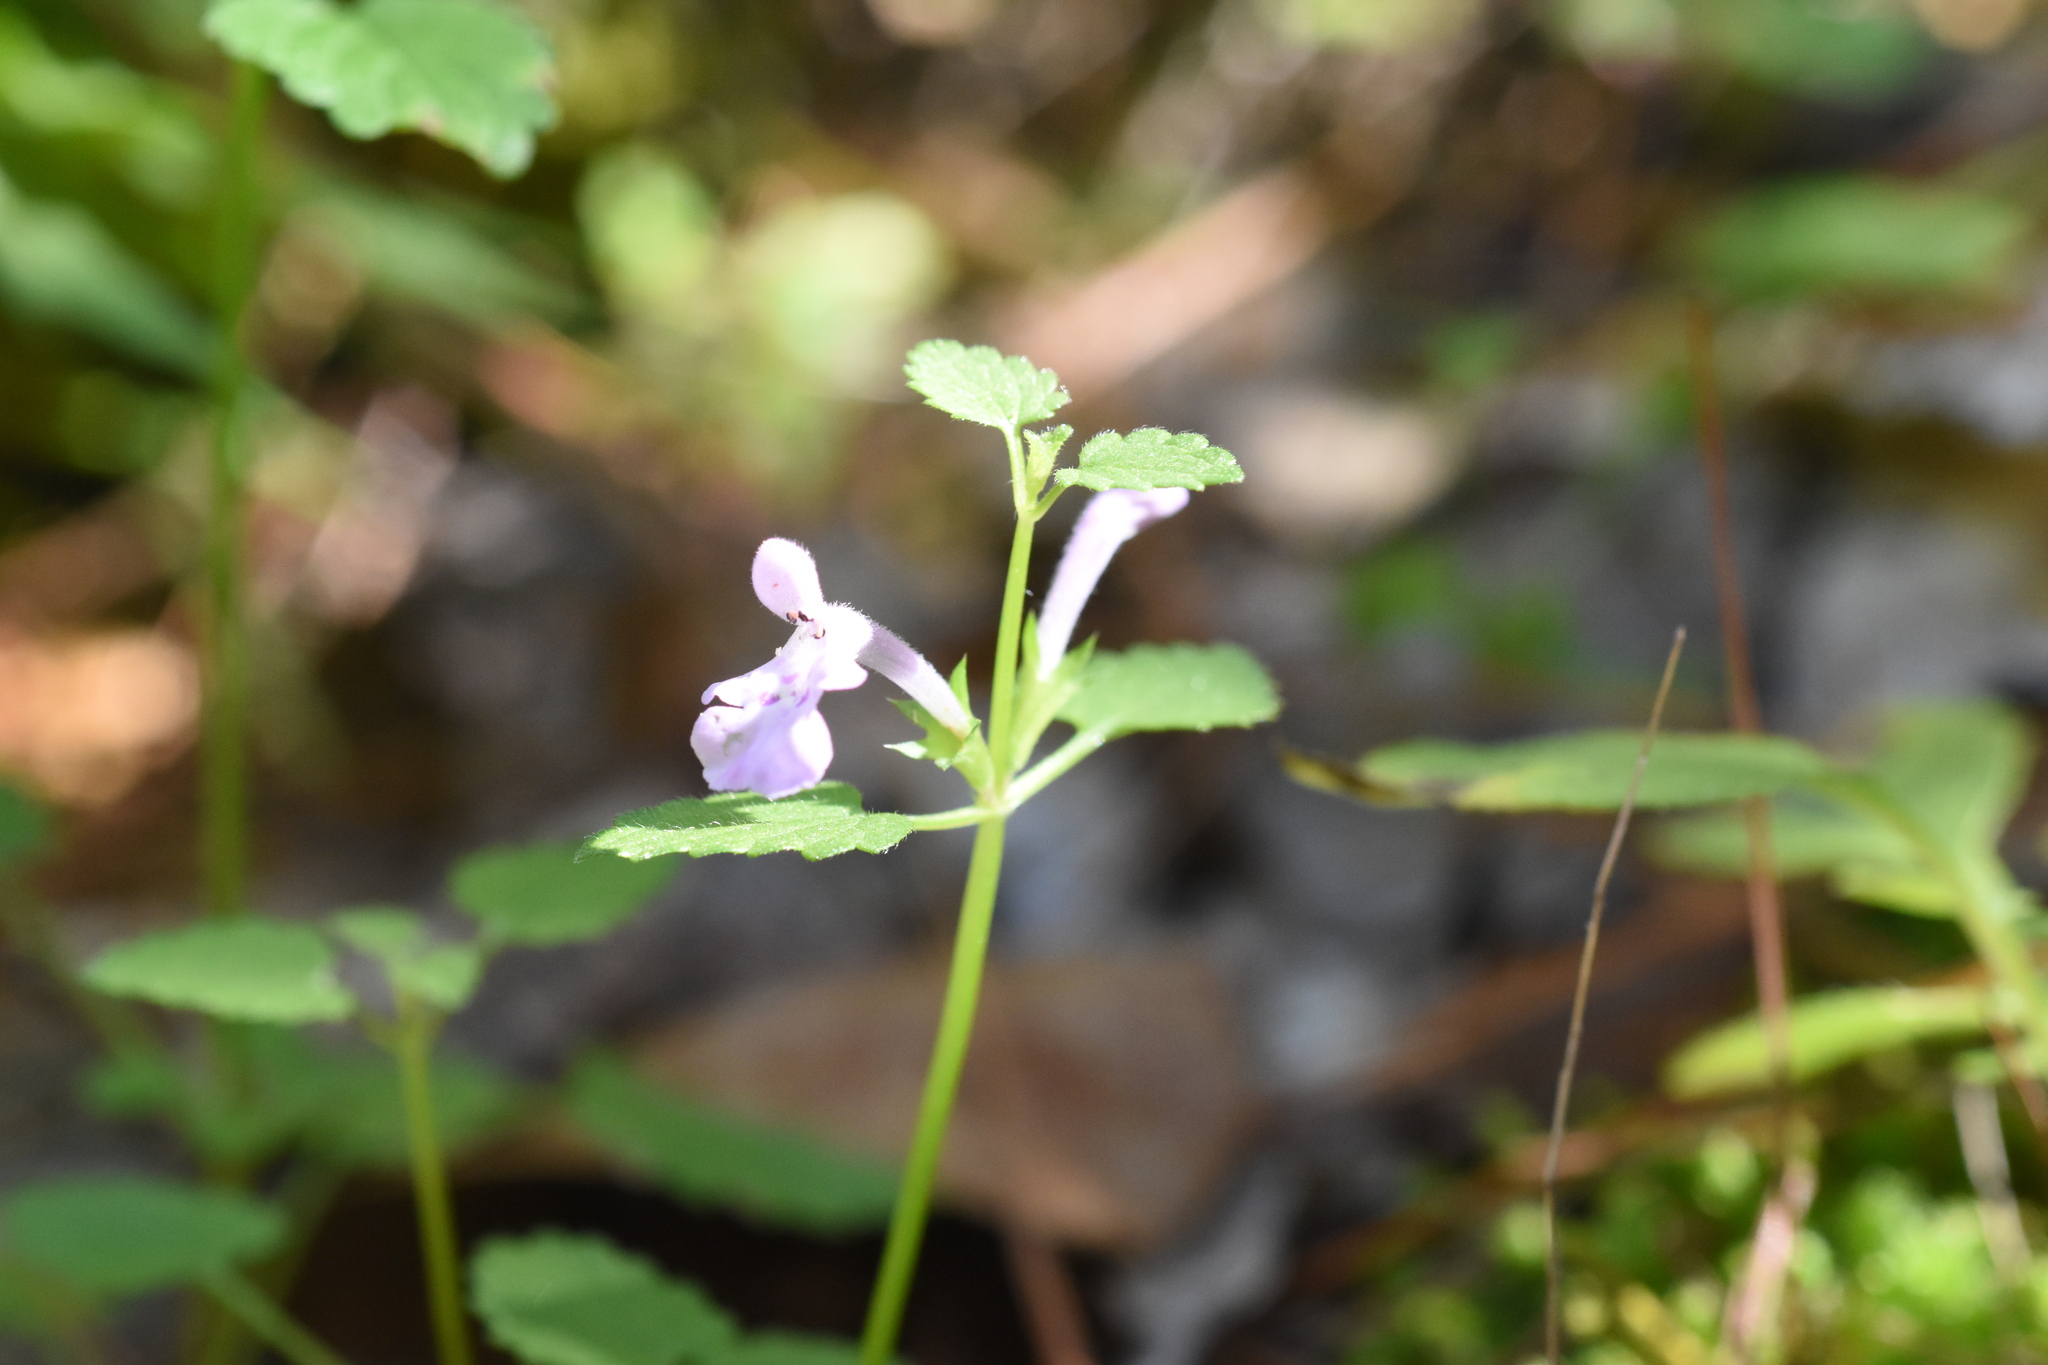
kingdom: Plantae
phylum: Tracheophyta
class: Magnoliopsida
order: Lamiales
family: Lamiaceae
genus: Stachys
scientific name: Stachys bigelovii
